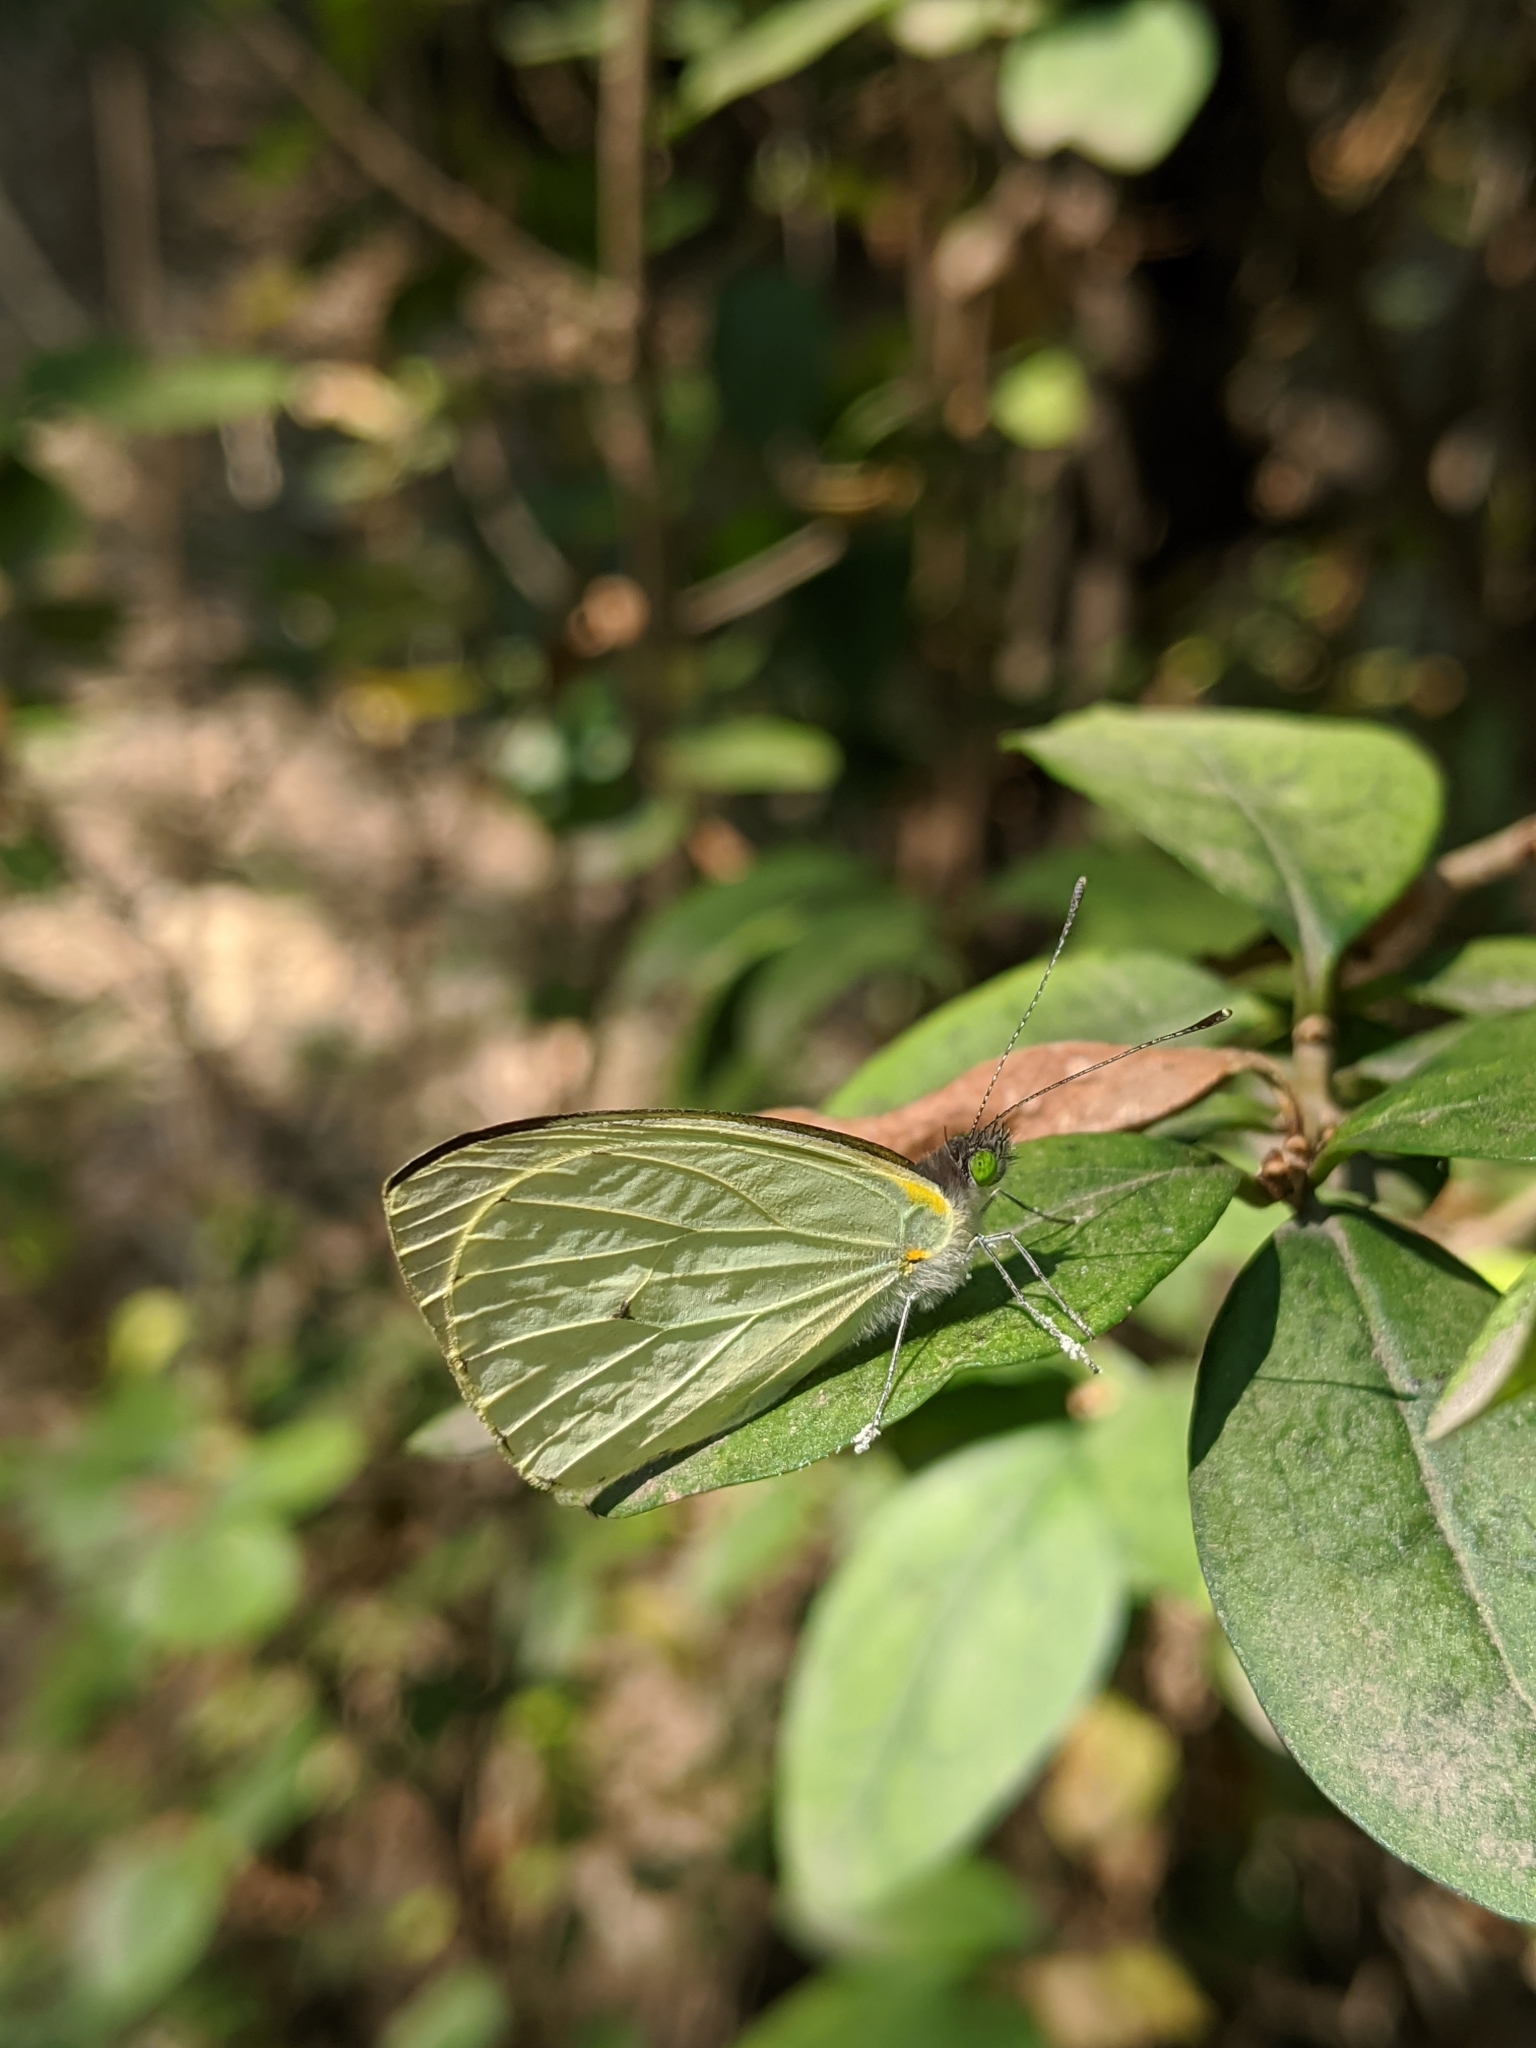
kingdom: Animalia
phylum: Arthropoda
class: Insecta
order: Lepidoptera
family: Pieridae
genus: Leptophobia
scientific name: Leptophobia aripa
